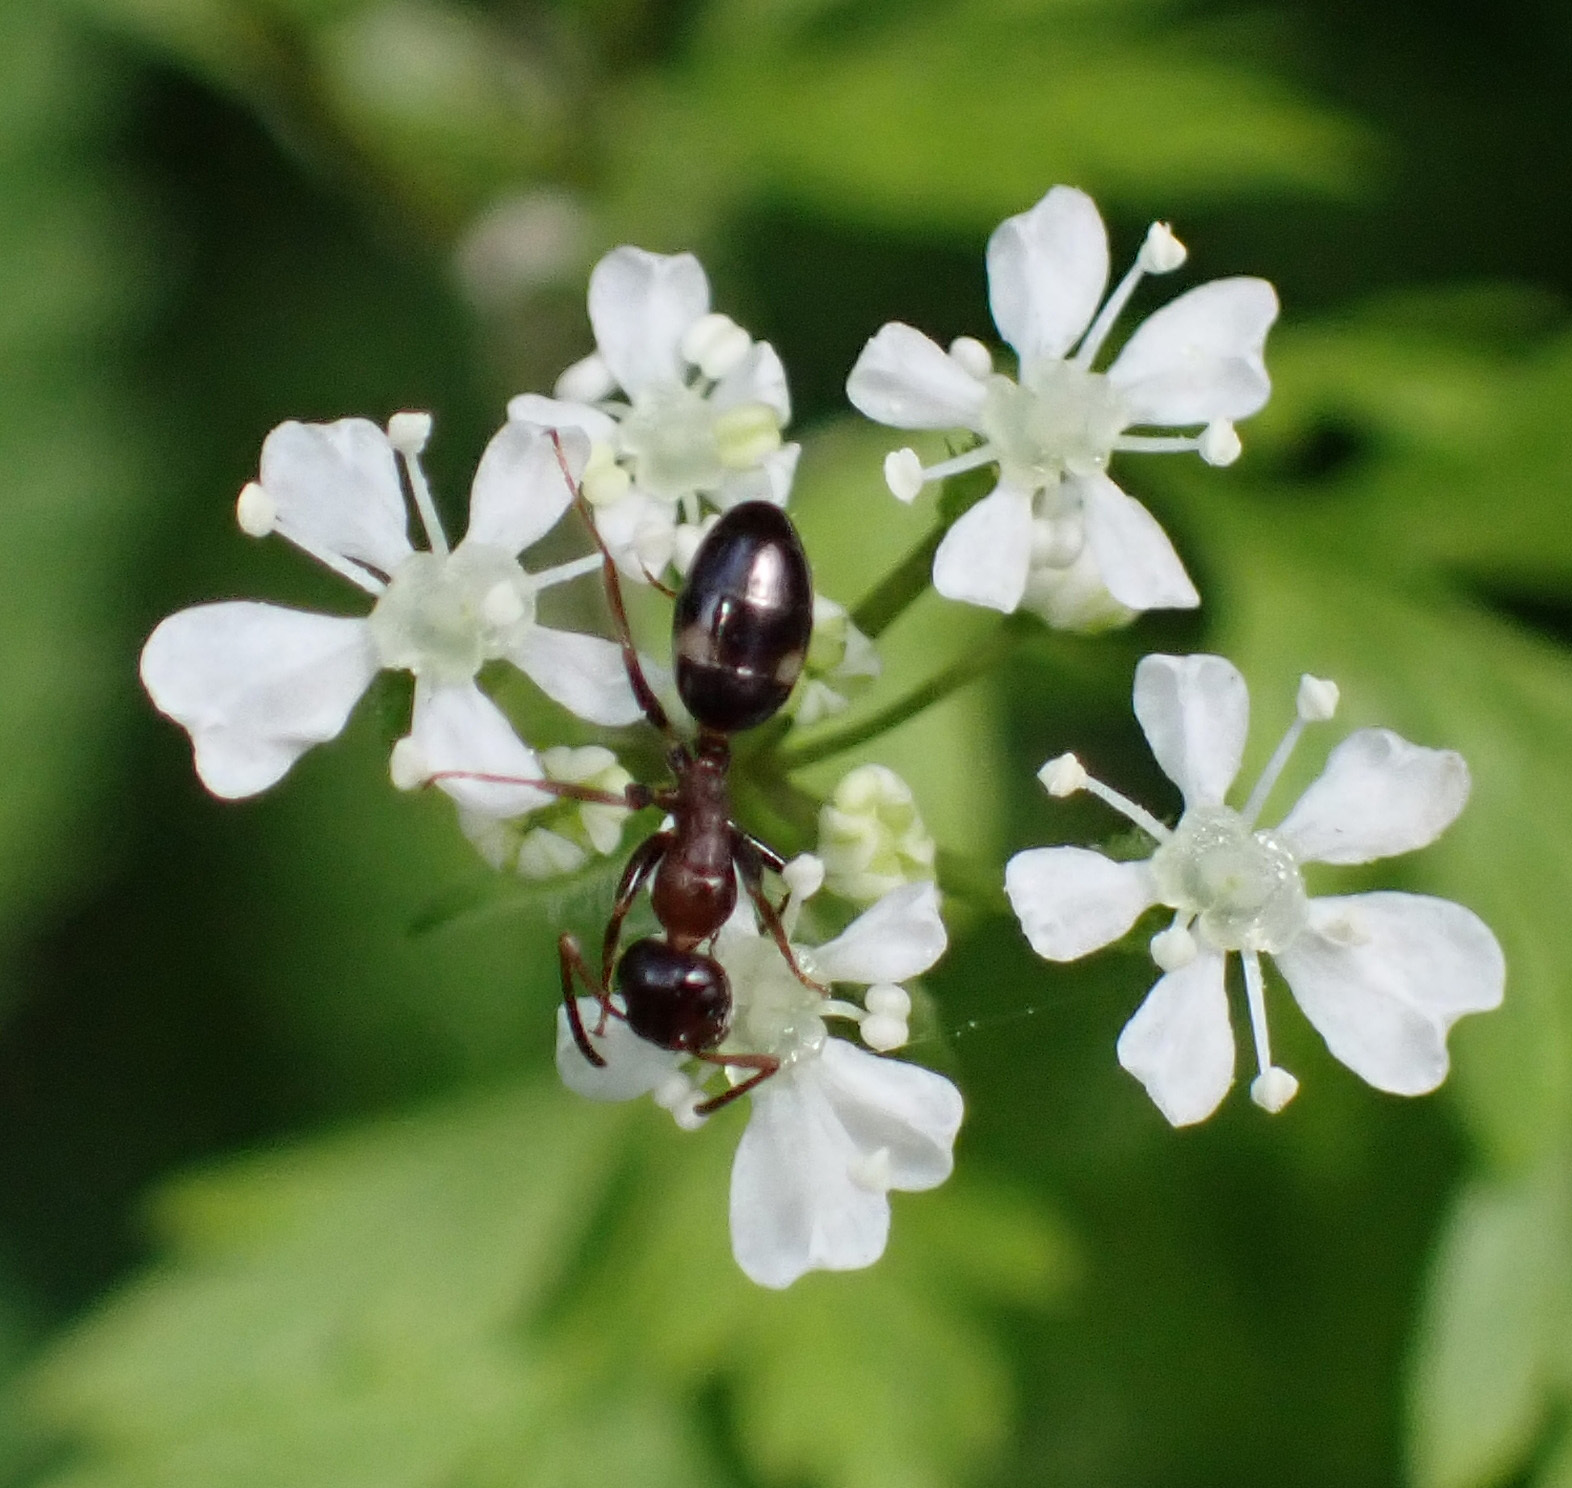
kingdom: Animalia
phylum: Arthropoda
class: Insecta
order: Hymenoptera
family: Formicidae
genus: Camponotus
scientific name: Camponotus truncatus
